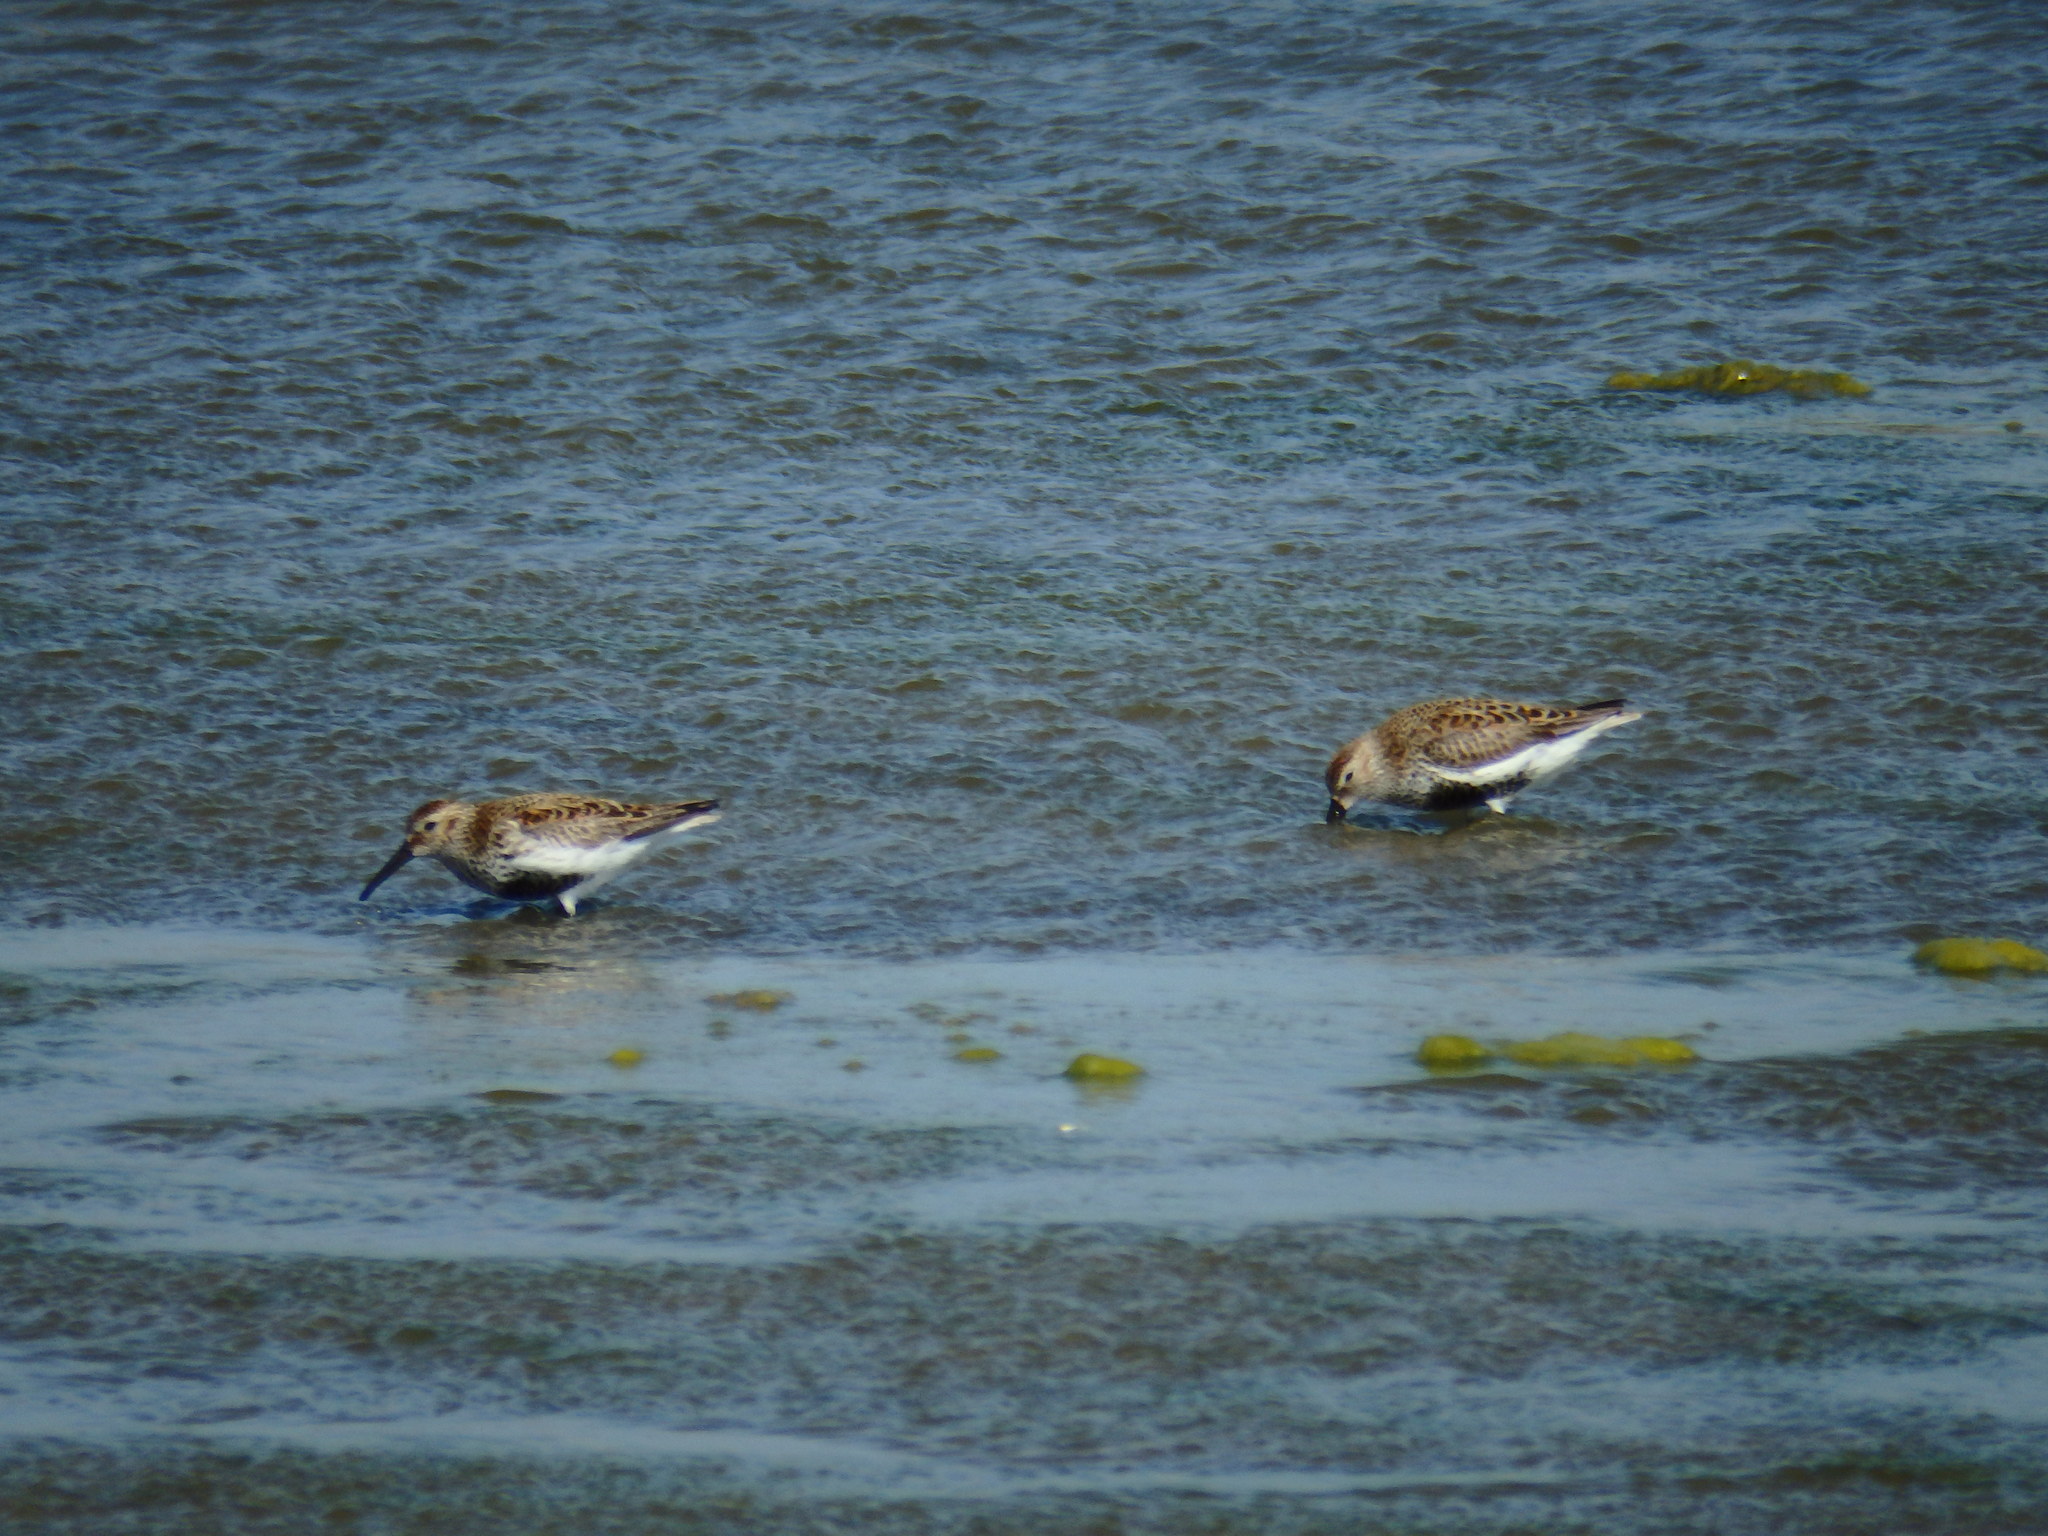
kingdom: Animalia
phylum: Chordata
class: Aves
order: Charadriiformes
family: Scolopacidae
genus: Calidris
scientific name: Calidris alpina
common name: Dunlin
